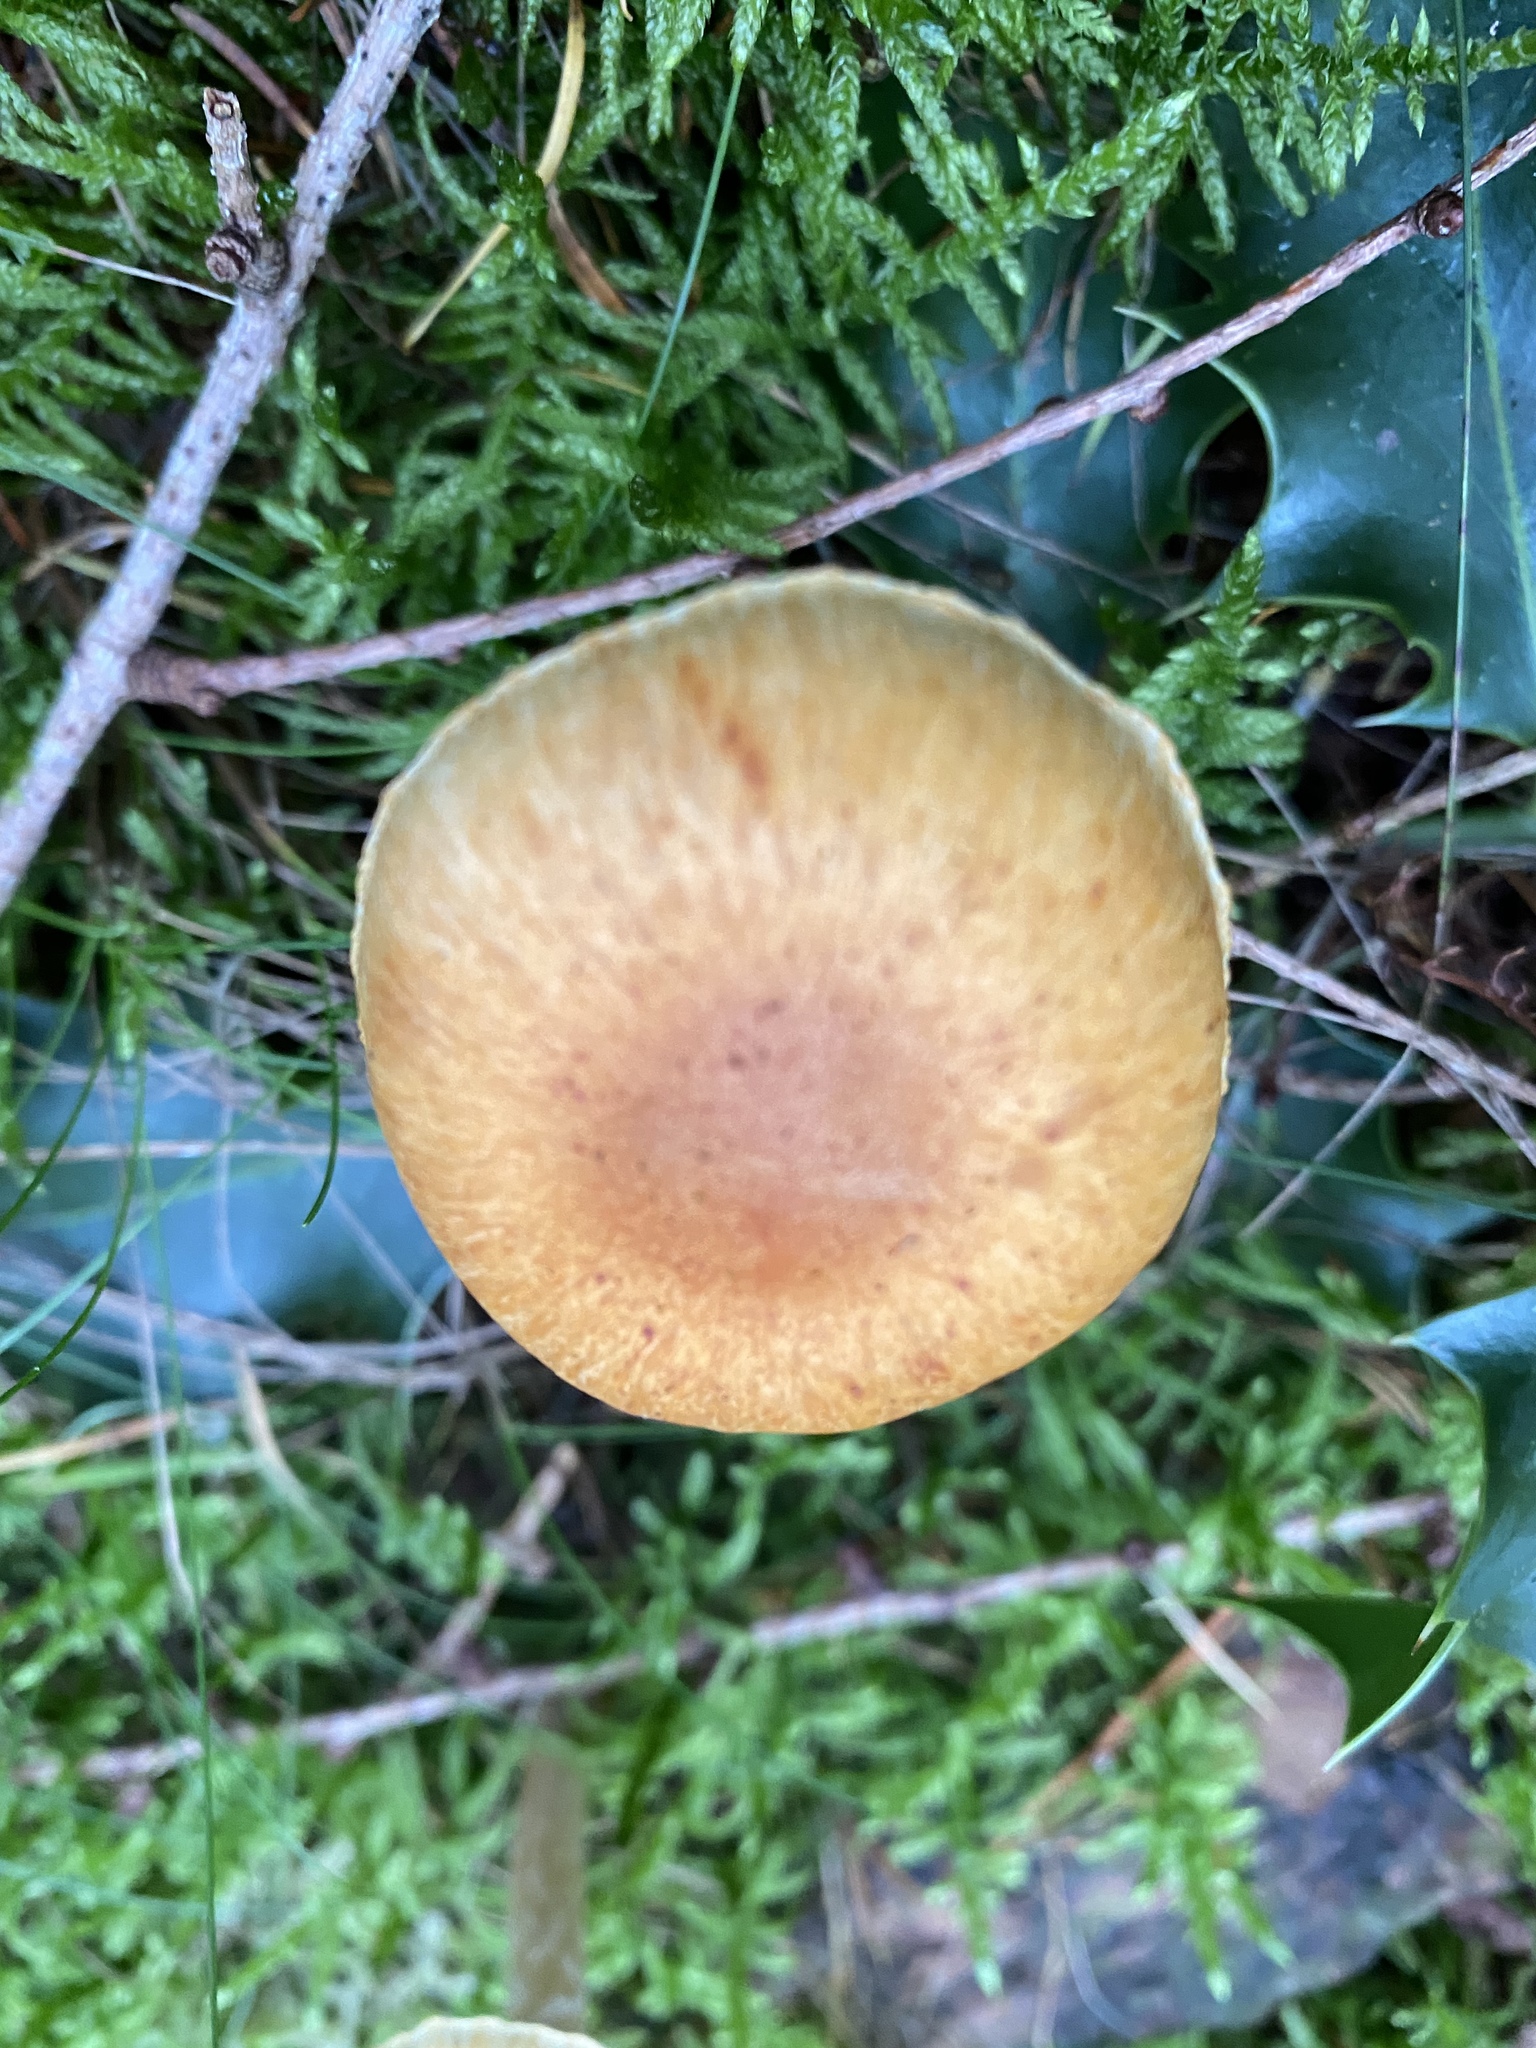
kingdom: Fungi
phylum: Basidiomycota
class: Agaricomycetes
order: Agaricales
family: Hymenogastraceae
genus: Gymnopilus
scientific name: Gymnopilus penetrans
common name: Common rustgill
